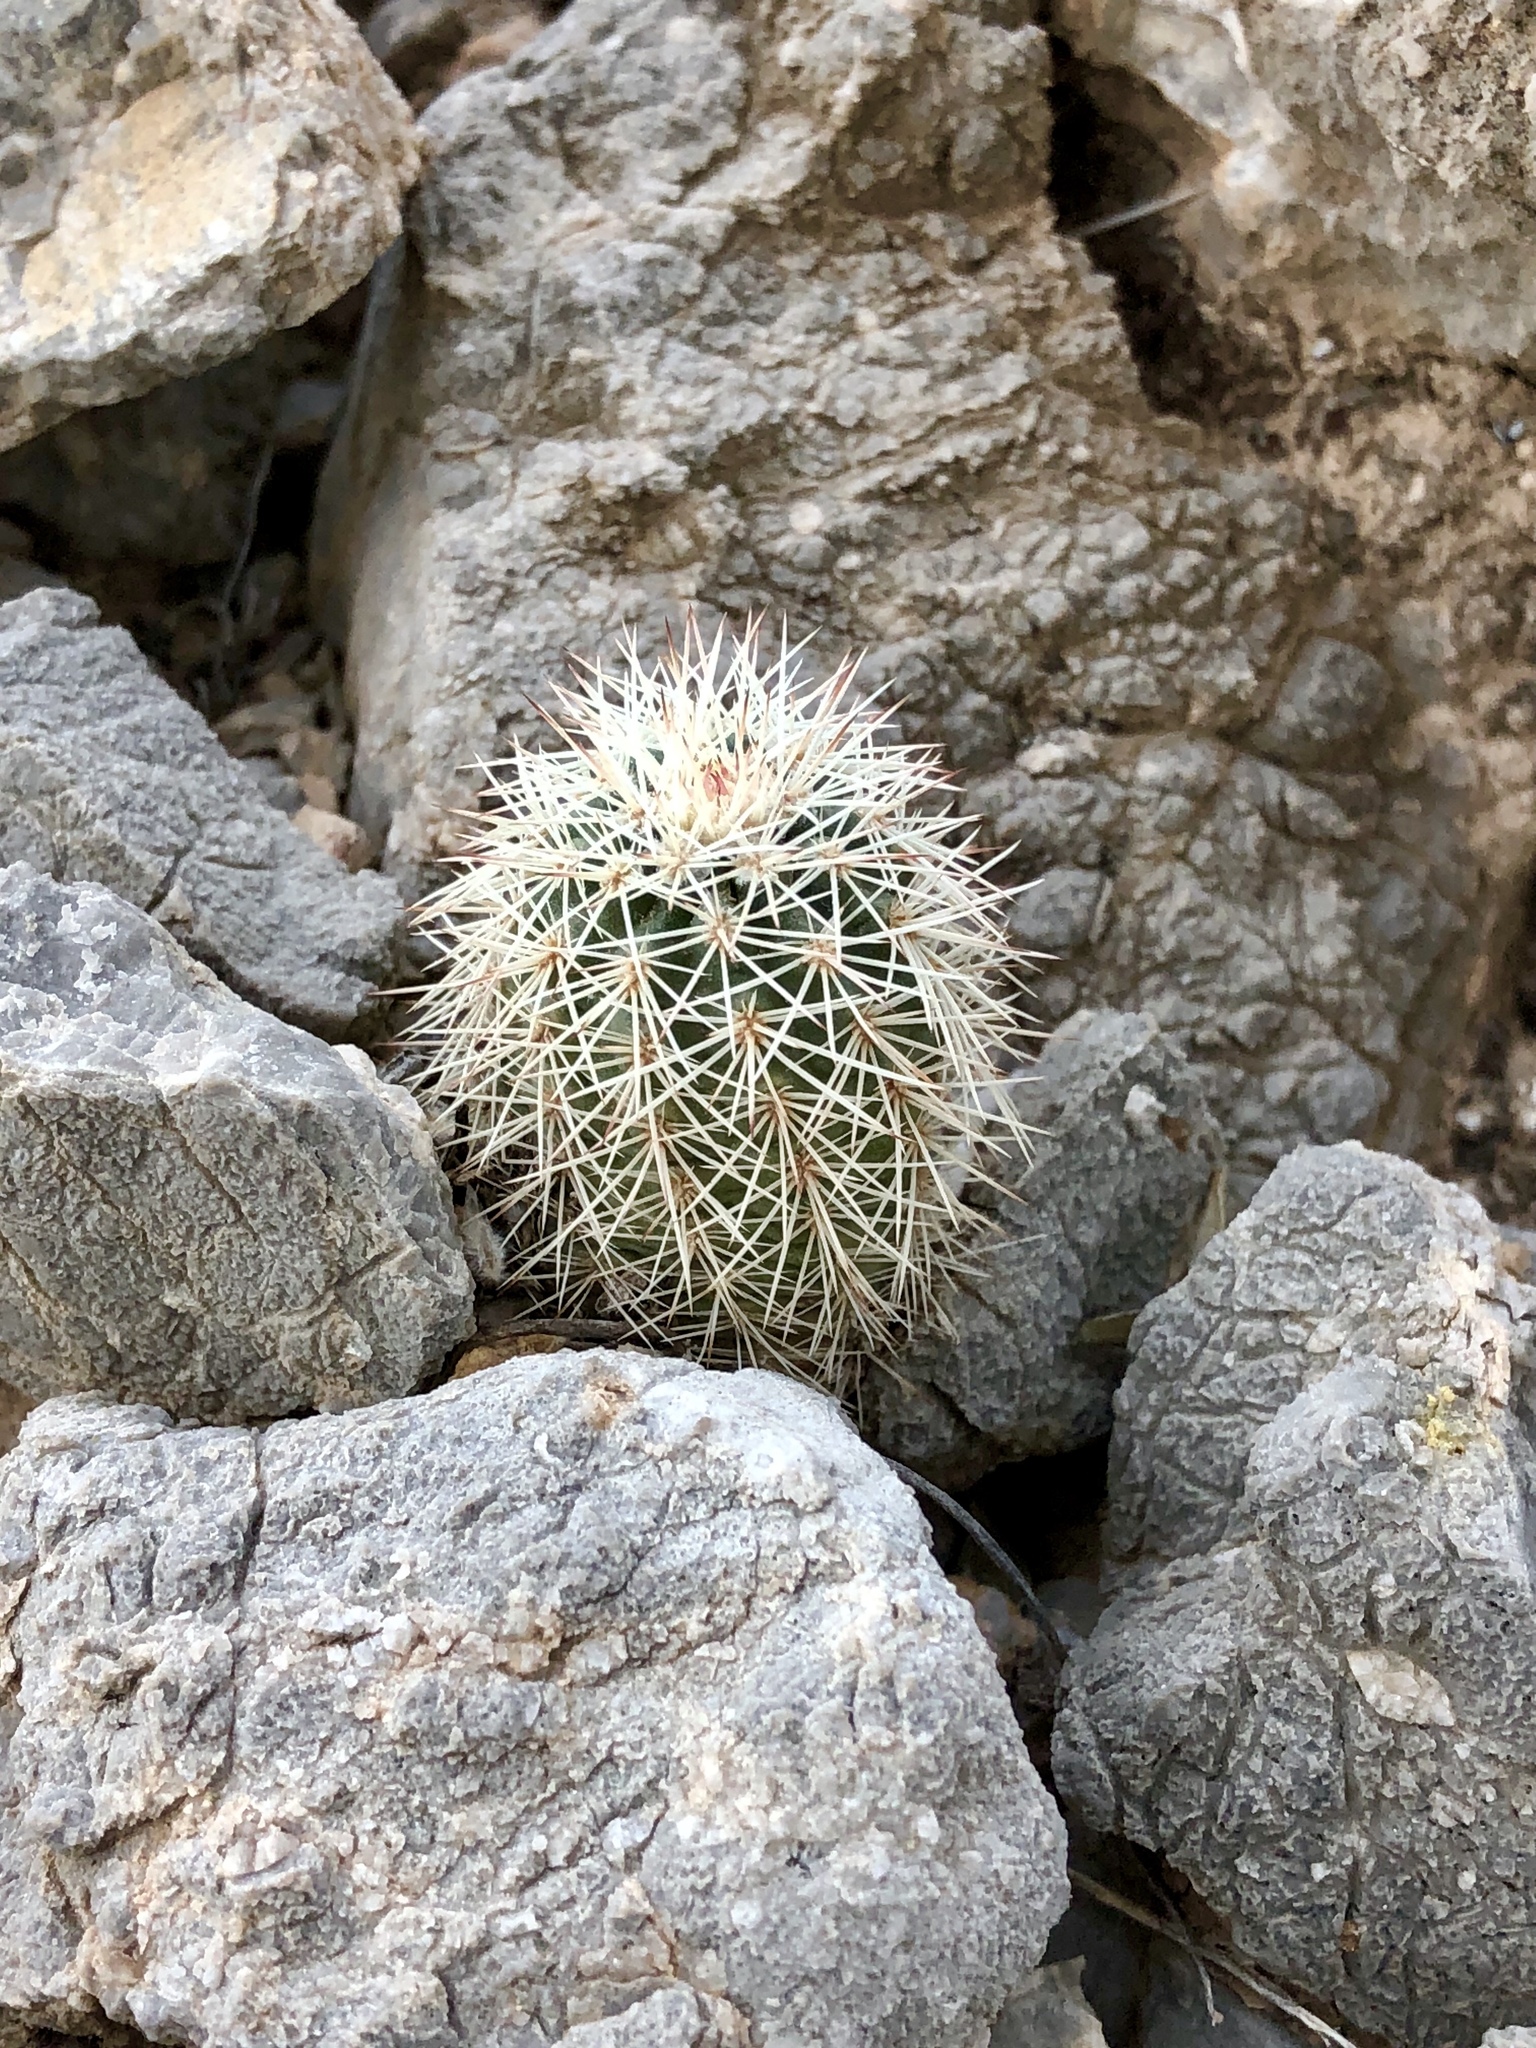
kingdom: Plantae
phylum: Tracheophyta
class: Magnoliopsida
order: Caryophyllales
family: Cactaceae
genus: Echinocereus
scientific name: Echinocereus roetteri
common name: Lloyd's hedgehog cactus
